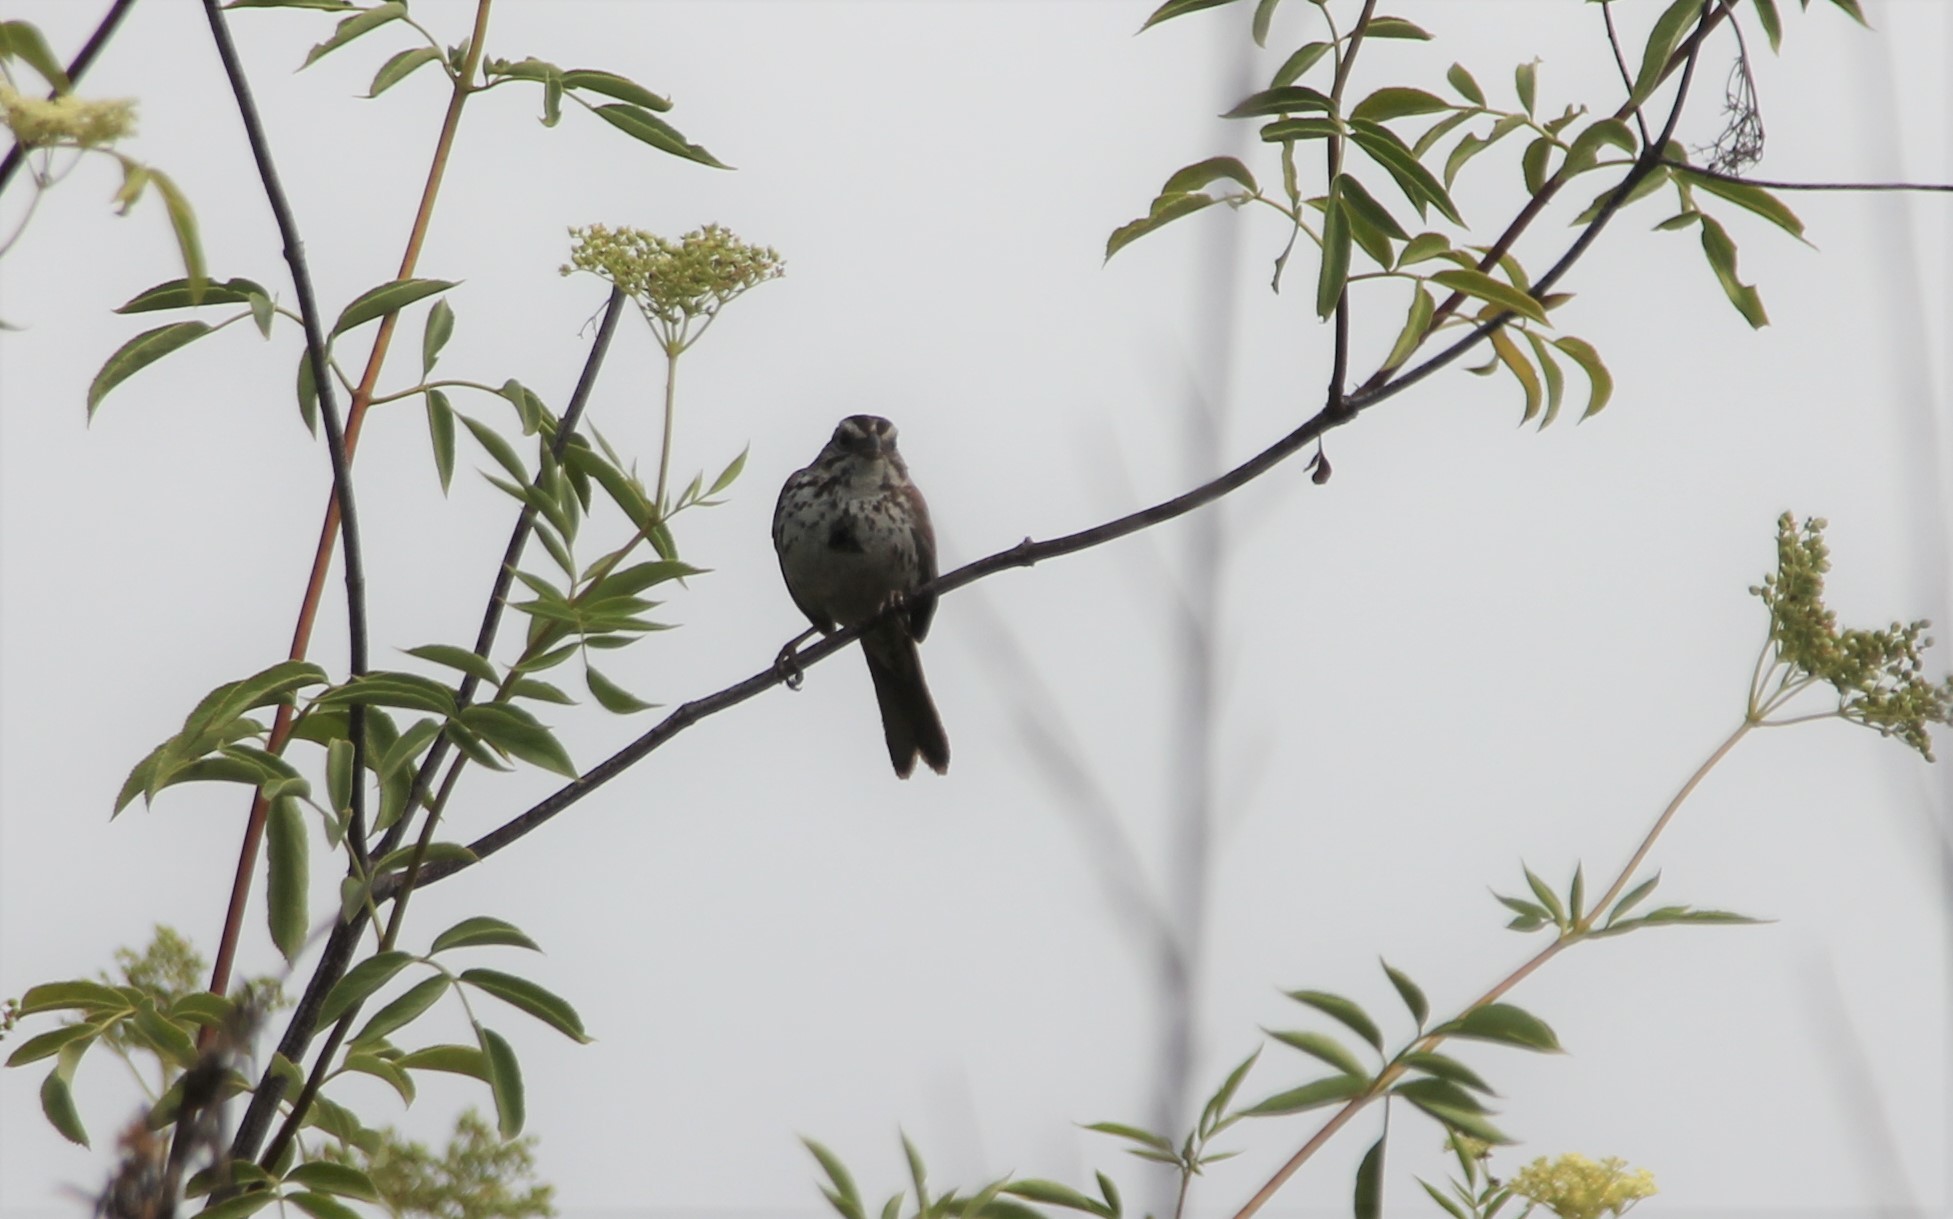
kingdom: Animalia
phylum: Chordata
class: Aves
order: Passeriformes
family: Passerellidae
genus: Melospiza
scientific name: Melospiza melodia
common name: Song sparrow
